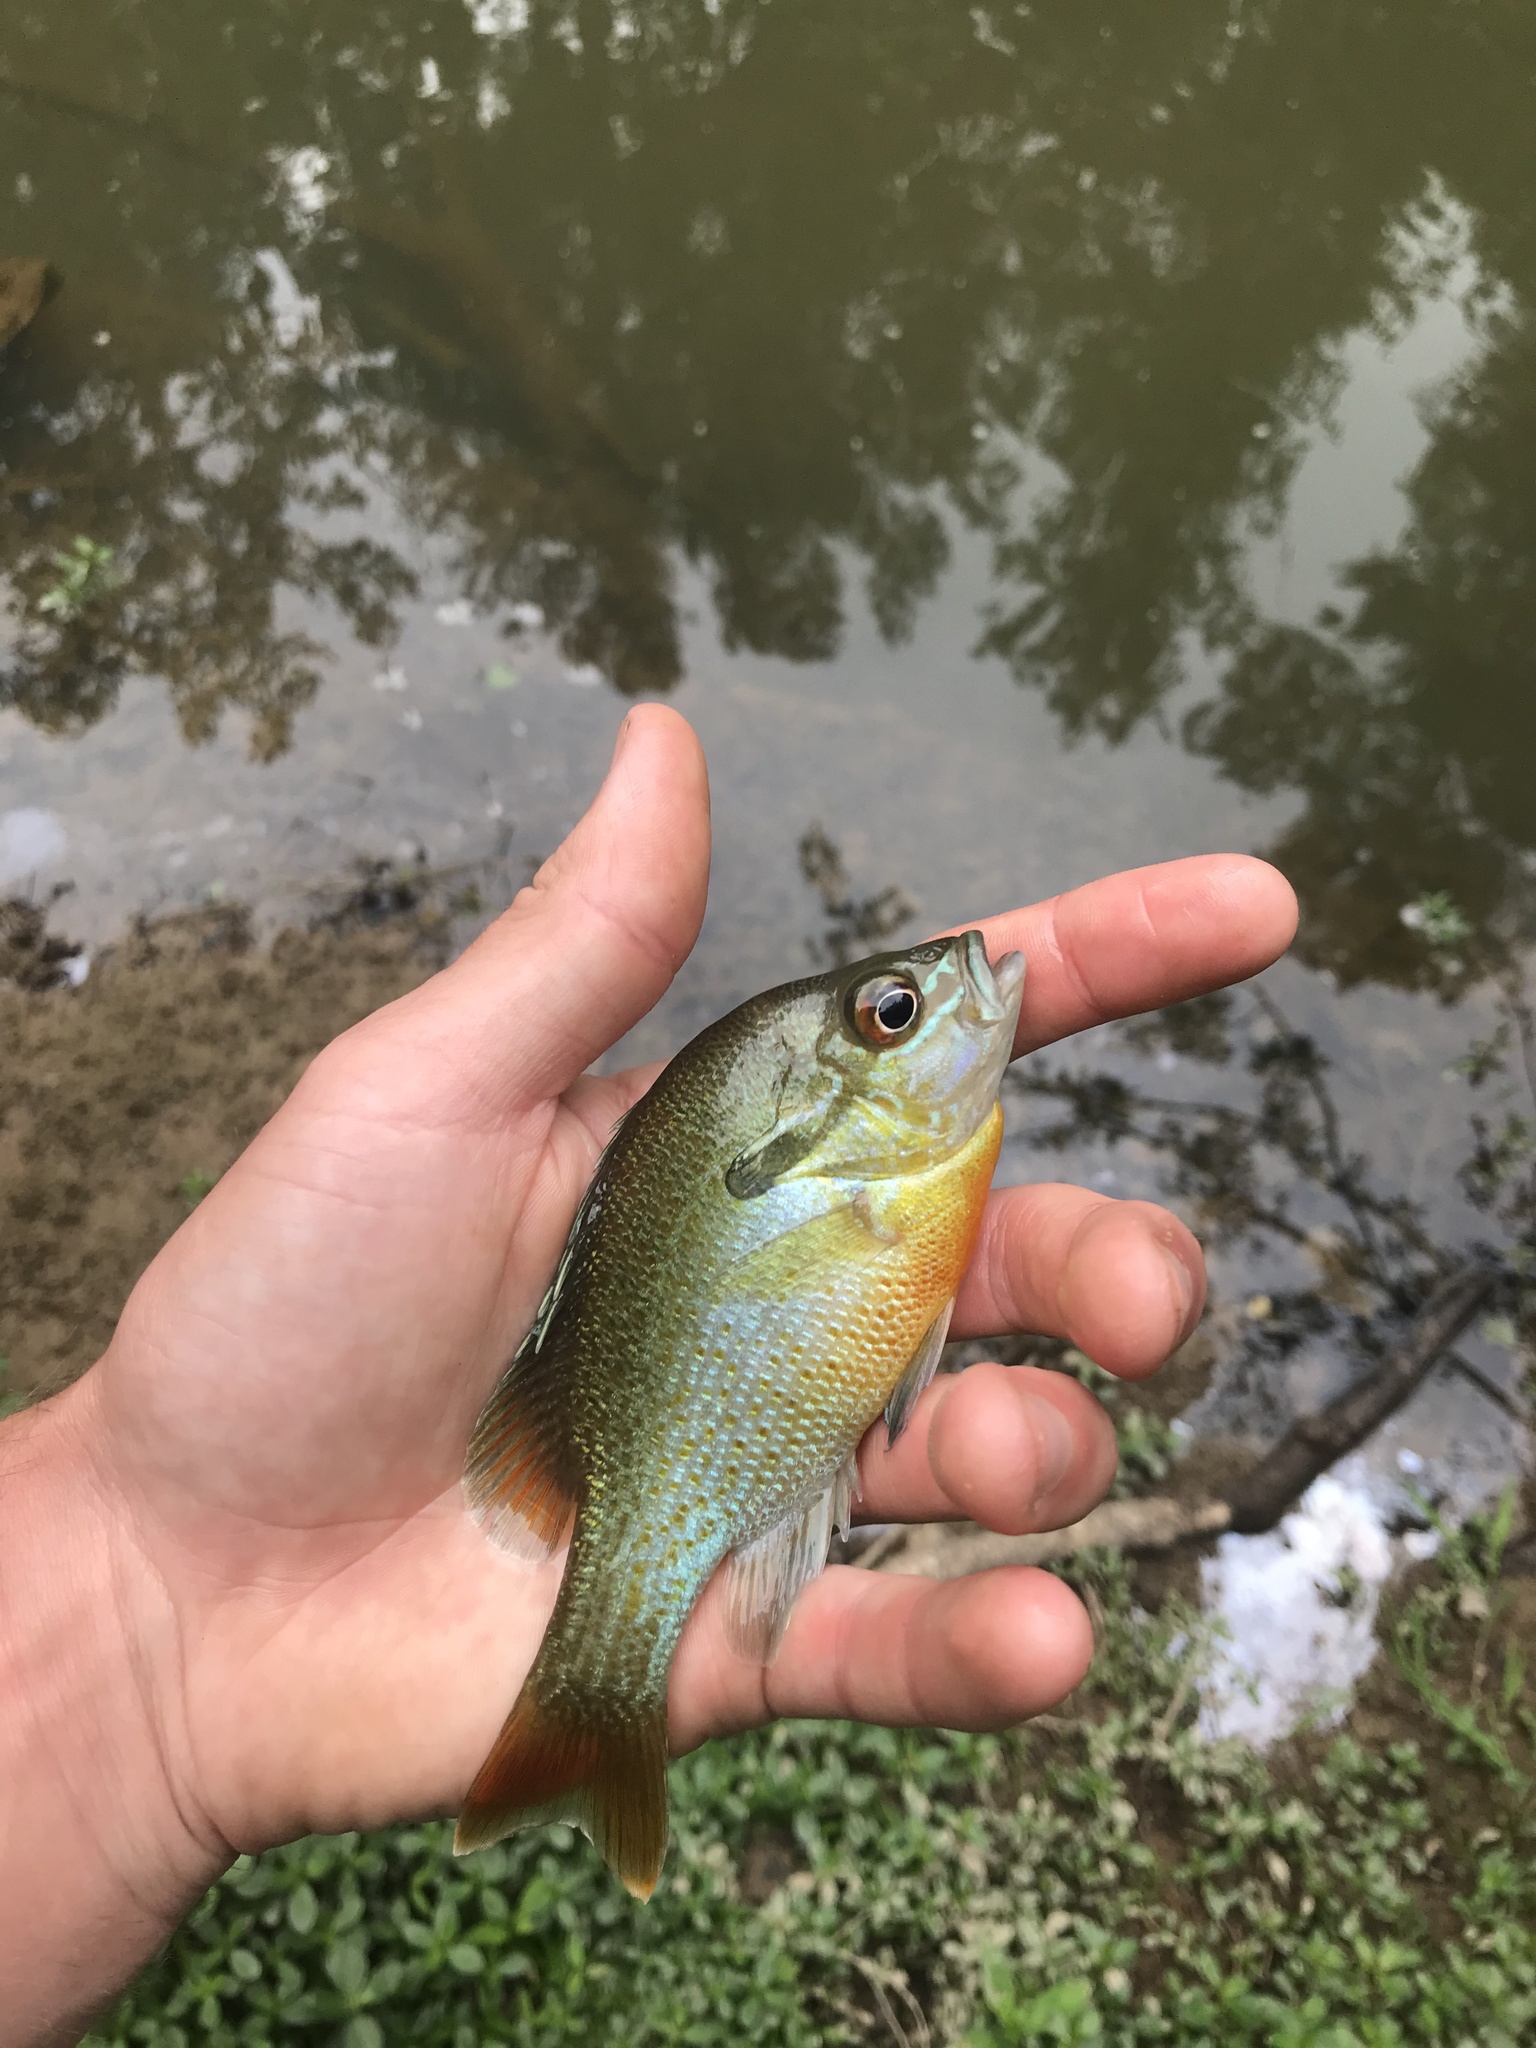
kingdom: Animalia
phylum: Chordata
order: Perciformes
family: Centrarchidae
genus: Lepomis
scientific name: Lepomis auritus
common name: Redbreast sunfish
